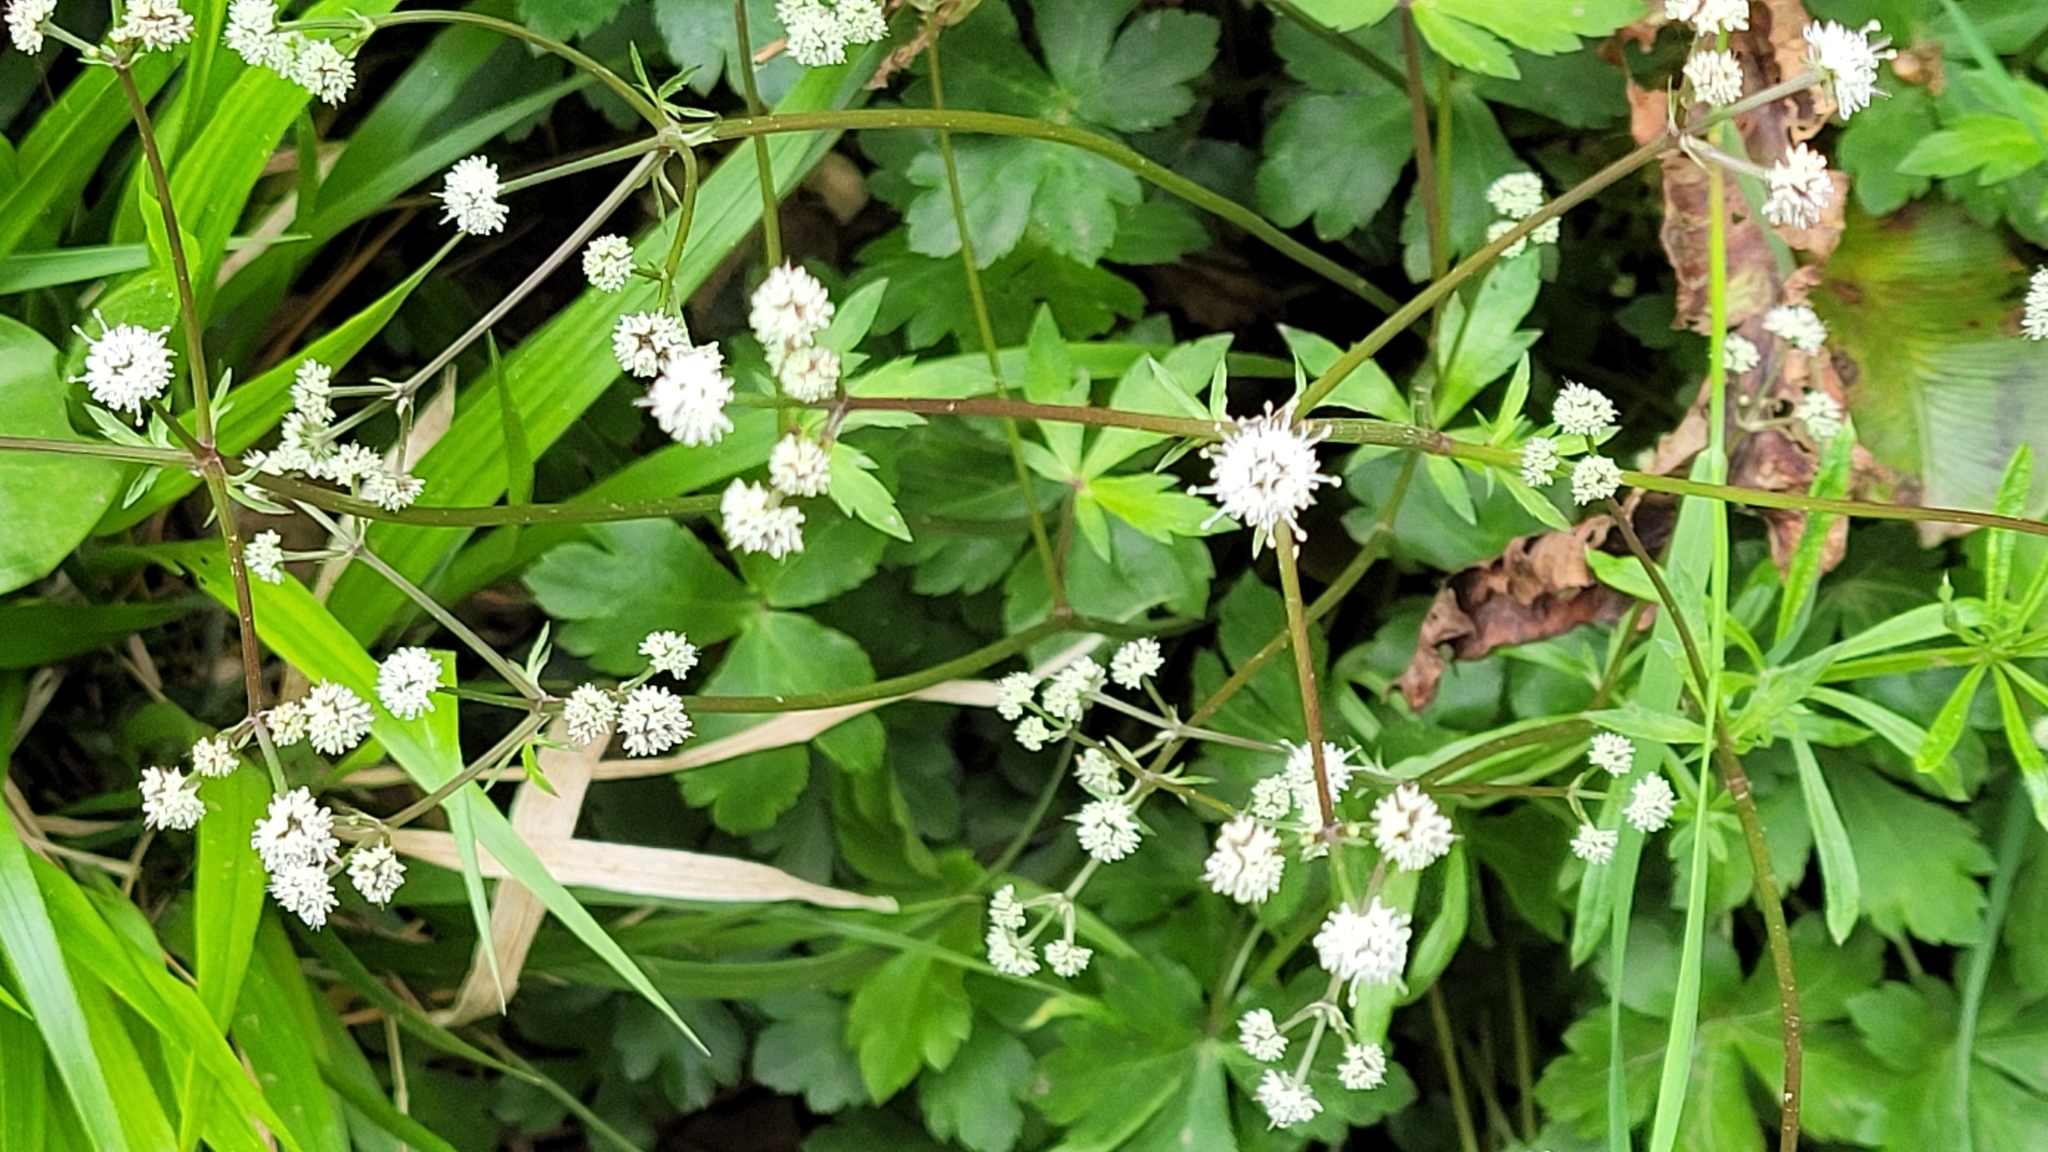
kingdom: Plantae
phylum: Tracheophyta
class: Magnoliopsida
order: Apiales
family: Apiaceae
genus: Sanicula
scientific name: Sanicula europaea
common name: Sanicle
